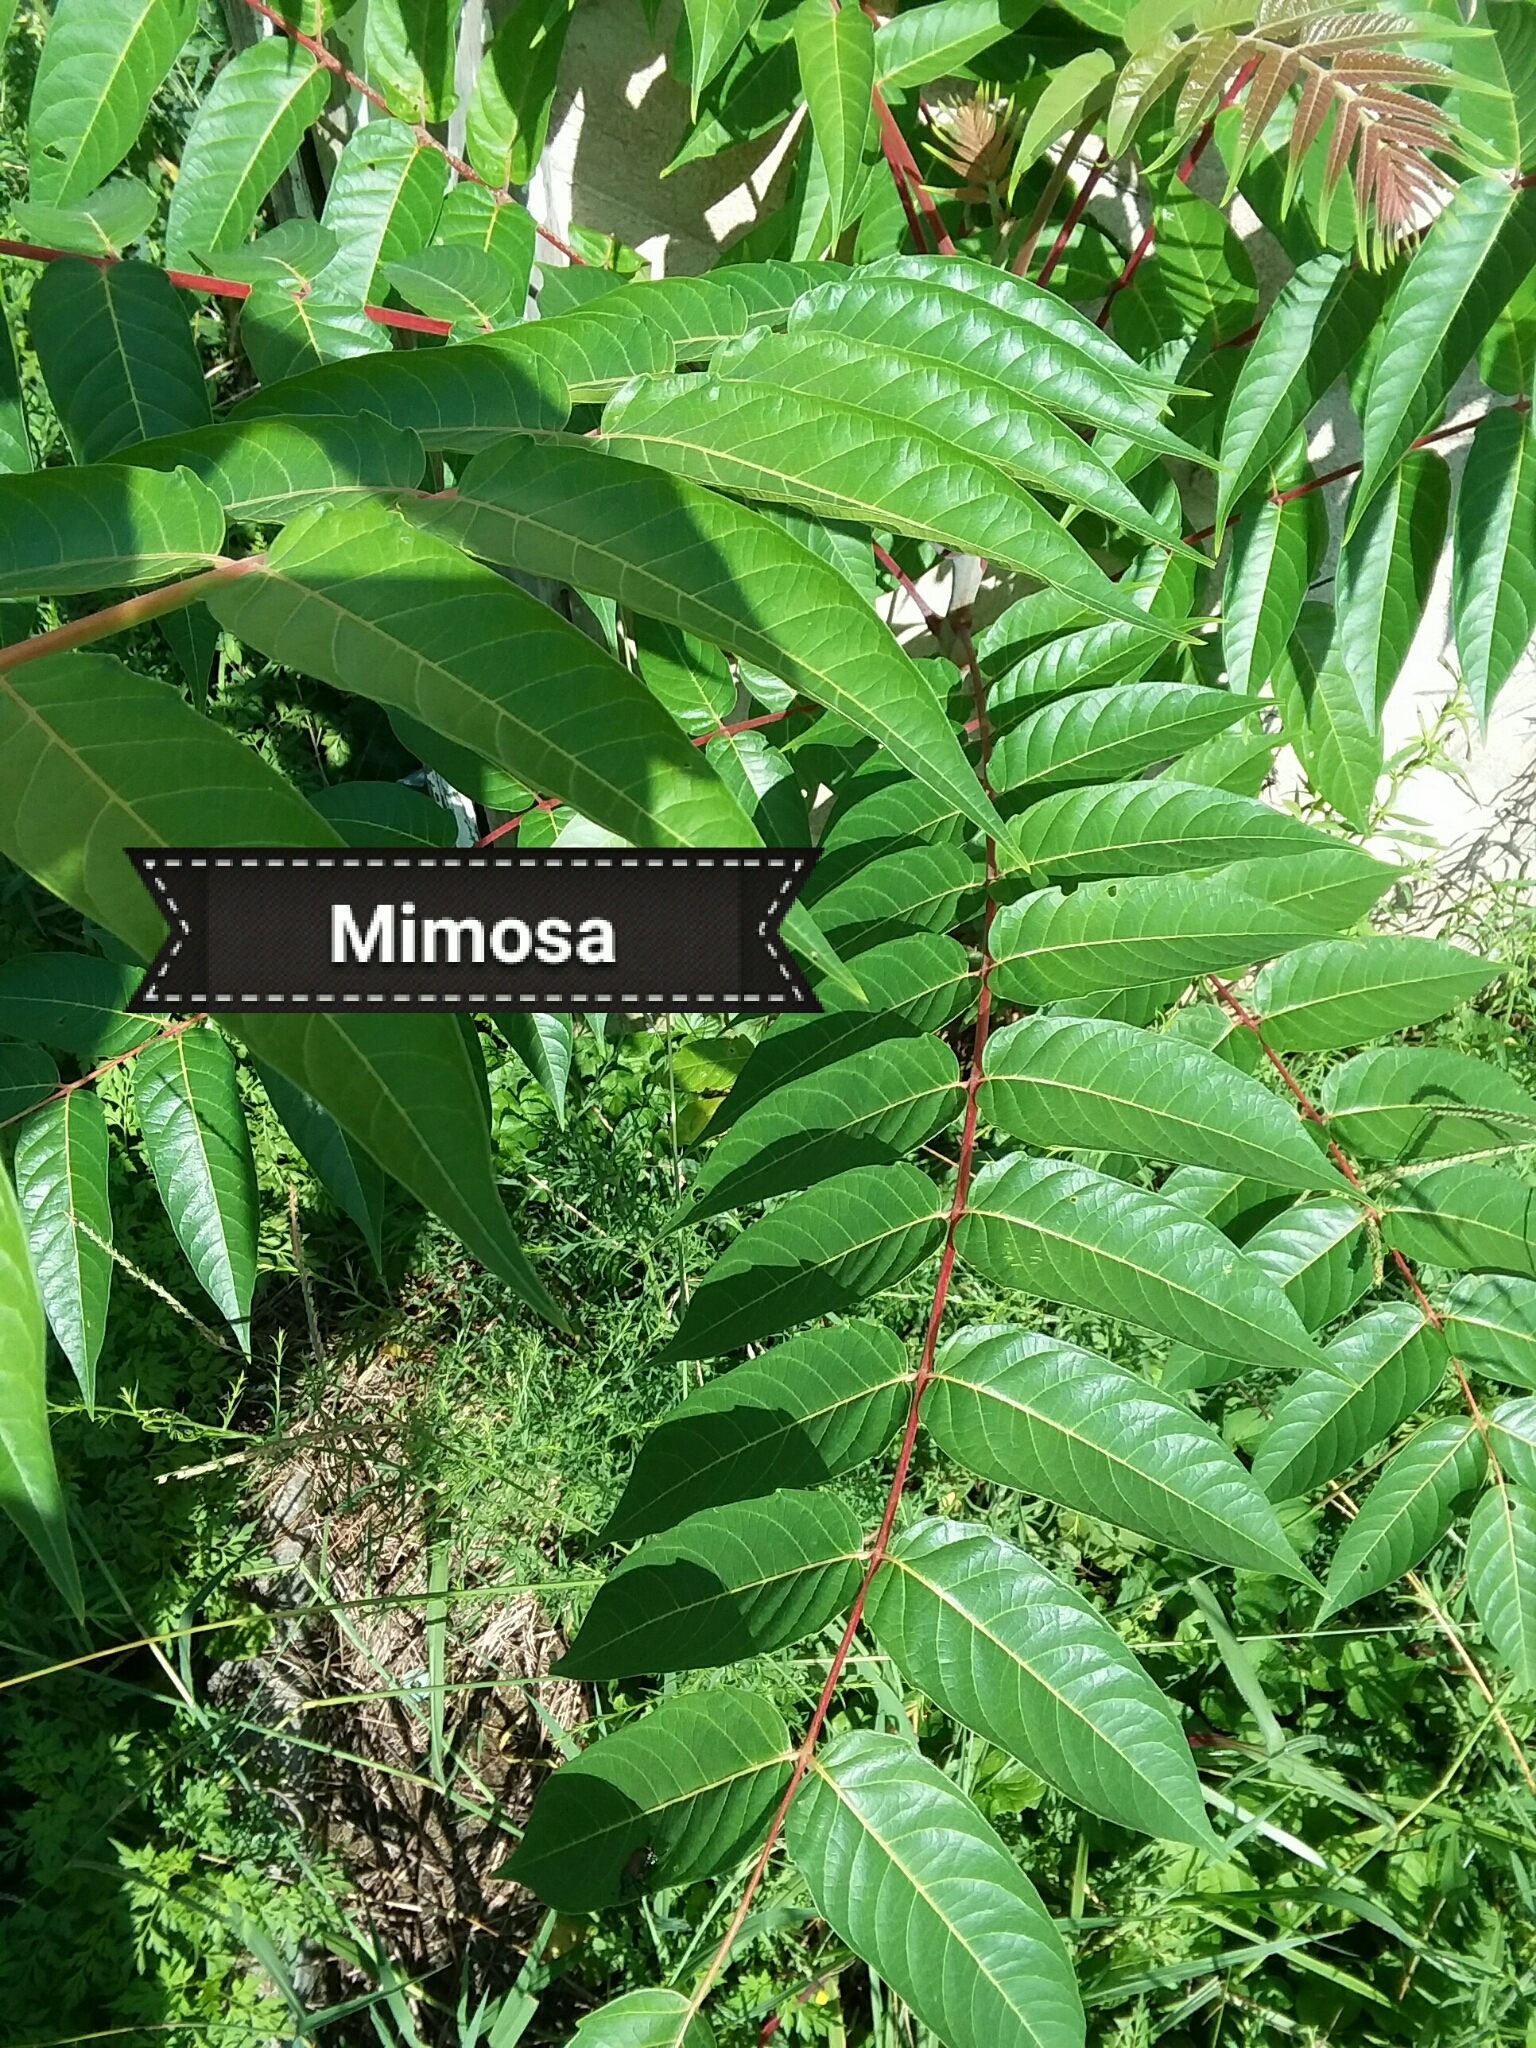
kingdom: Plantae
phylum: Tracheophyta
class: Magnoliopsida
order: Sapindales
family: Simaroubaceae
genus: Ailanthus
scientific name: Ailanthus altissima
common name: Tree-of-heaven
